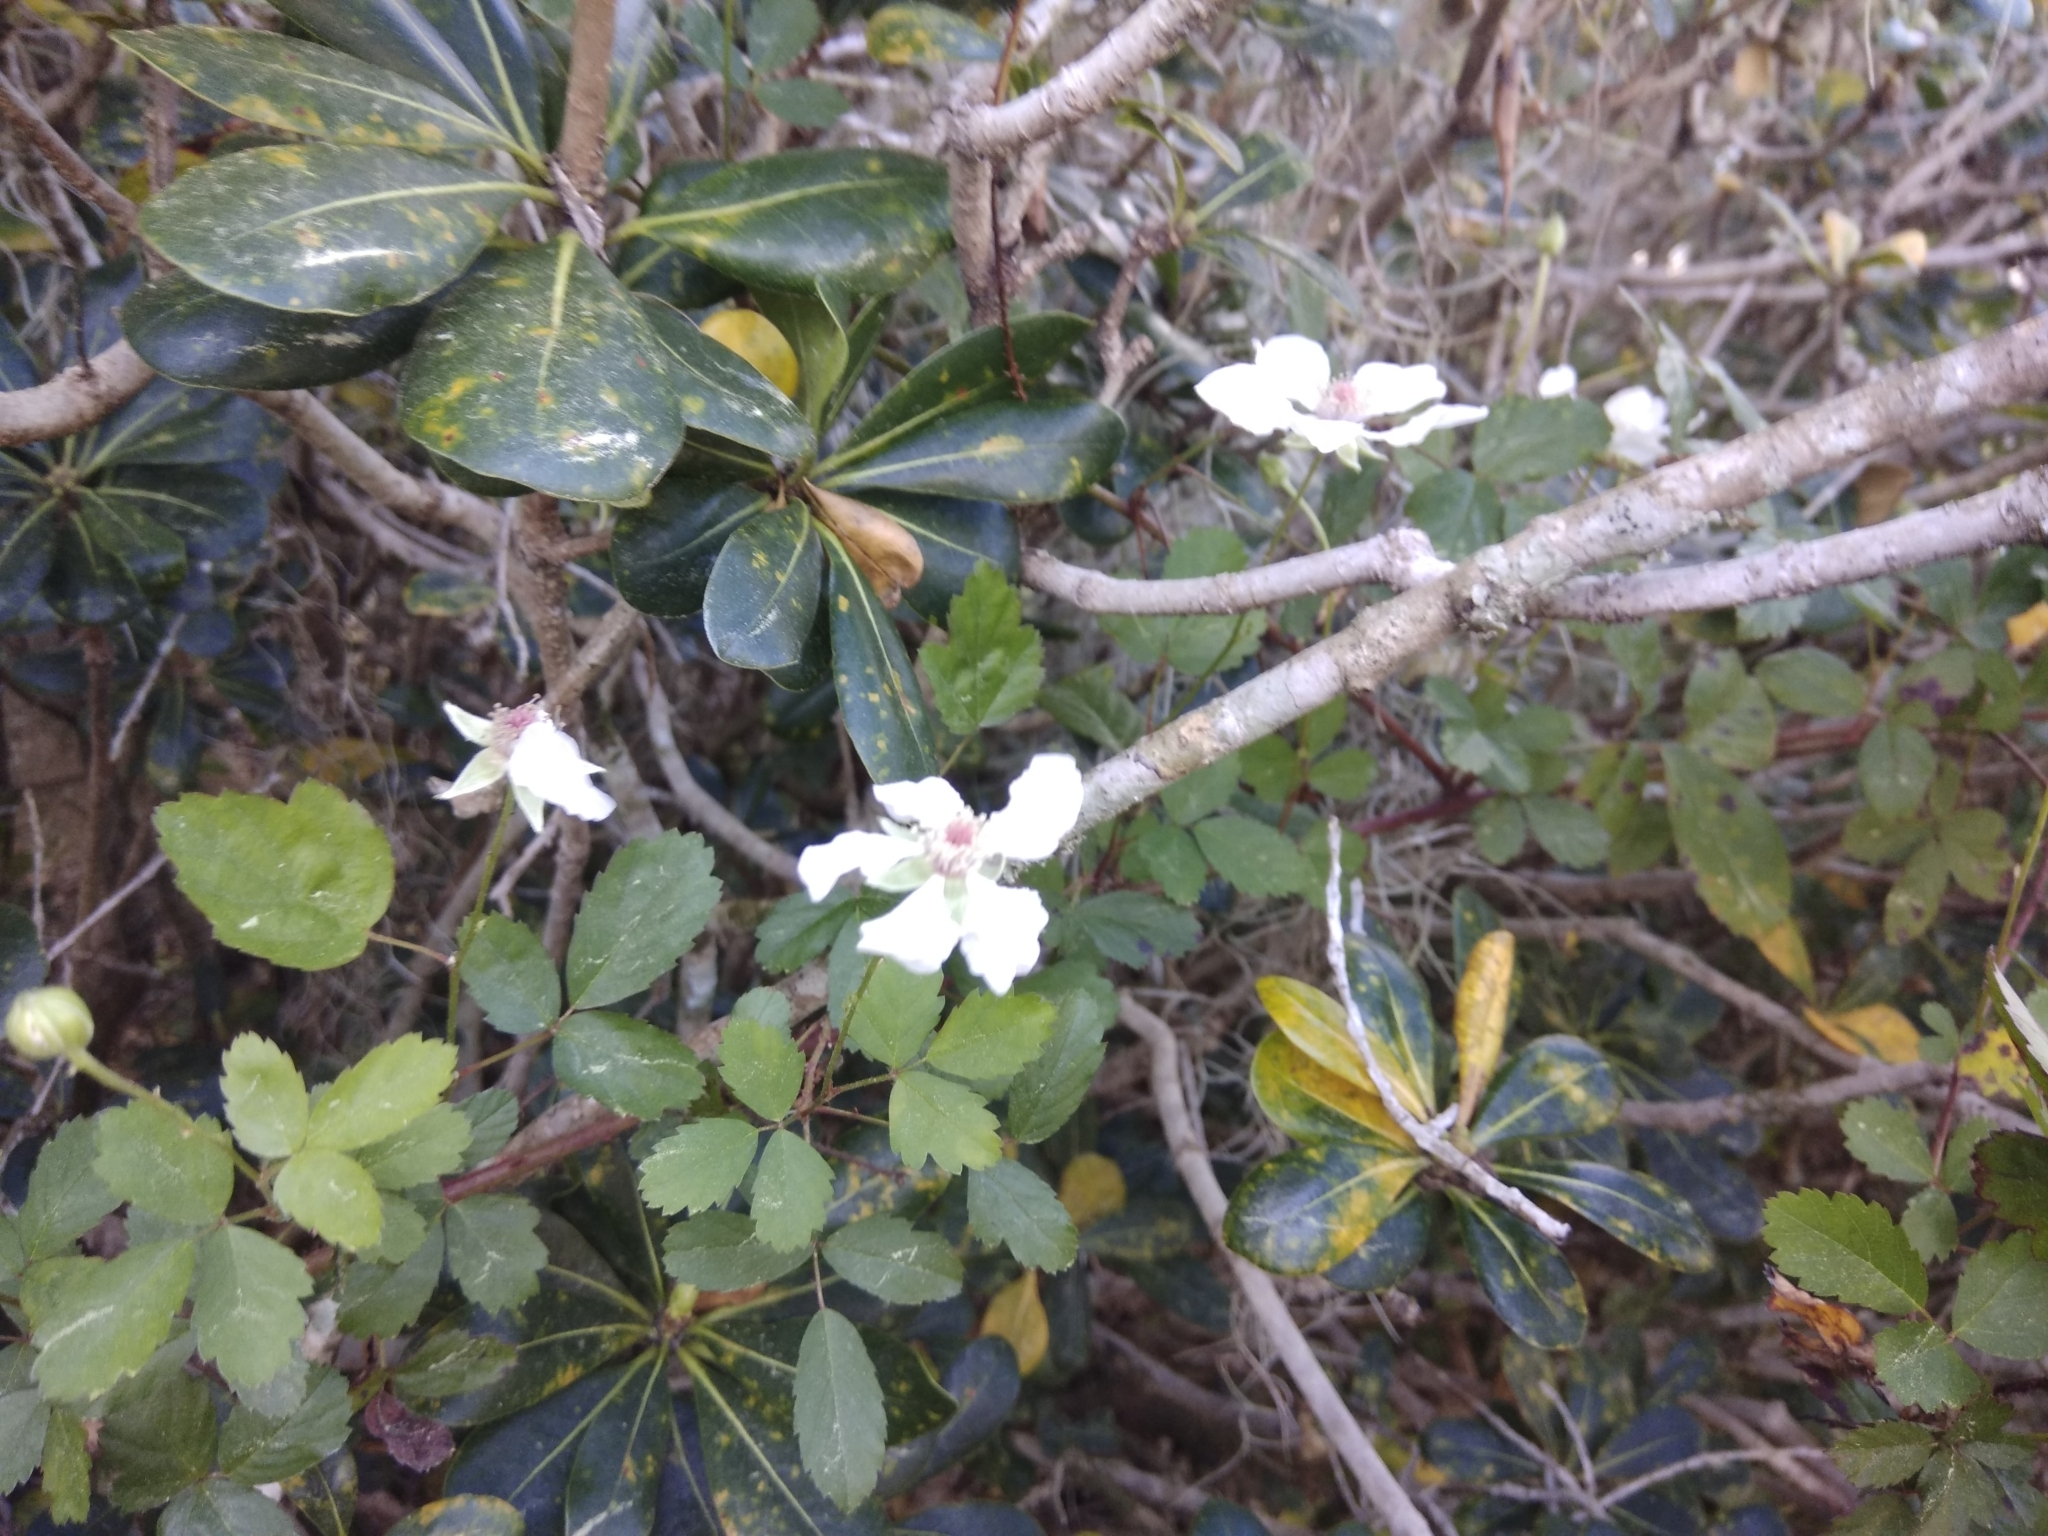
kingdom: Plantae
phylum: Tracheophyta
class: Magnoliopsida
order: Rosales
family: Rosaceae
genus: Rubus
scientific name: Rubus trivialis
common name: Southern dewberry
